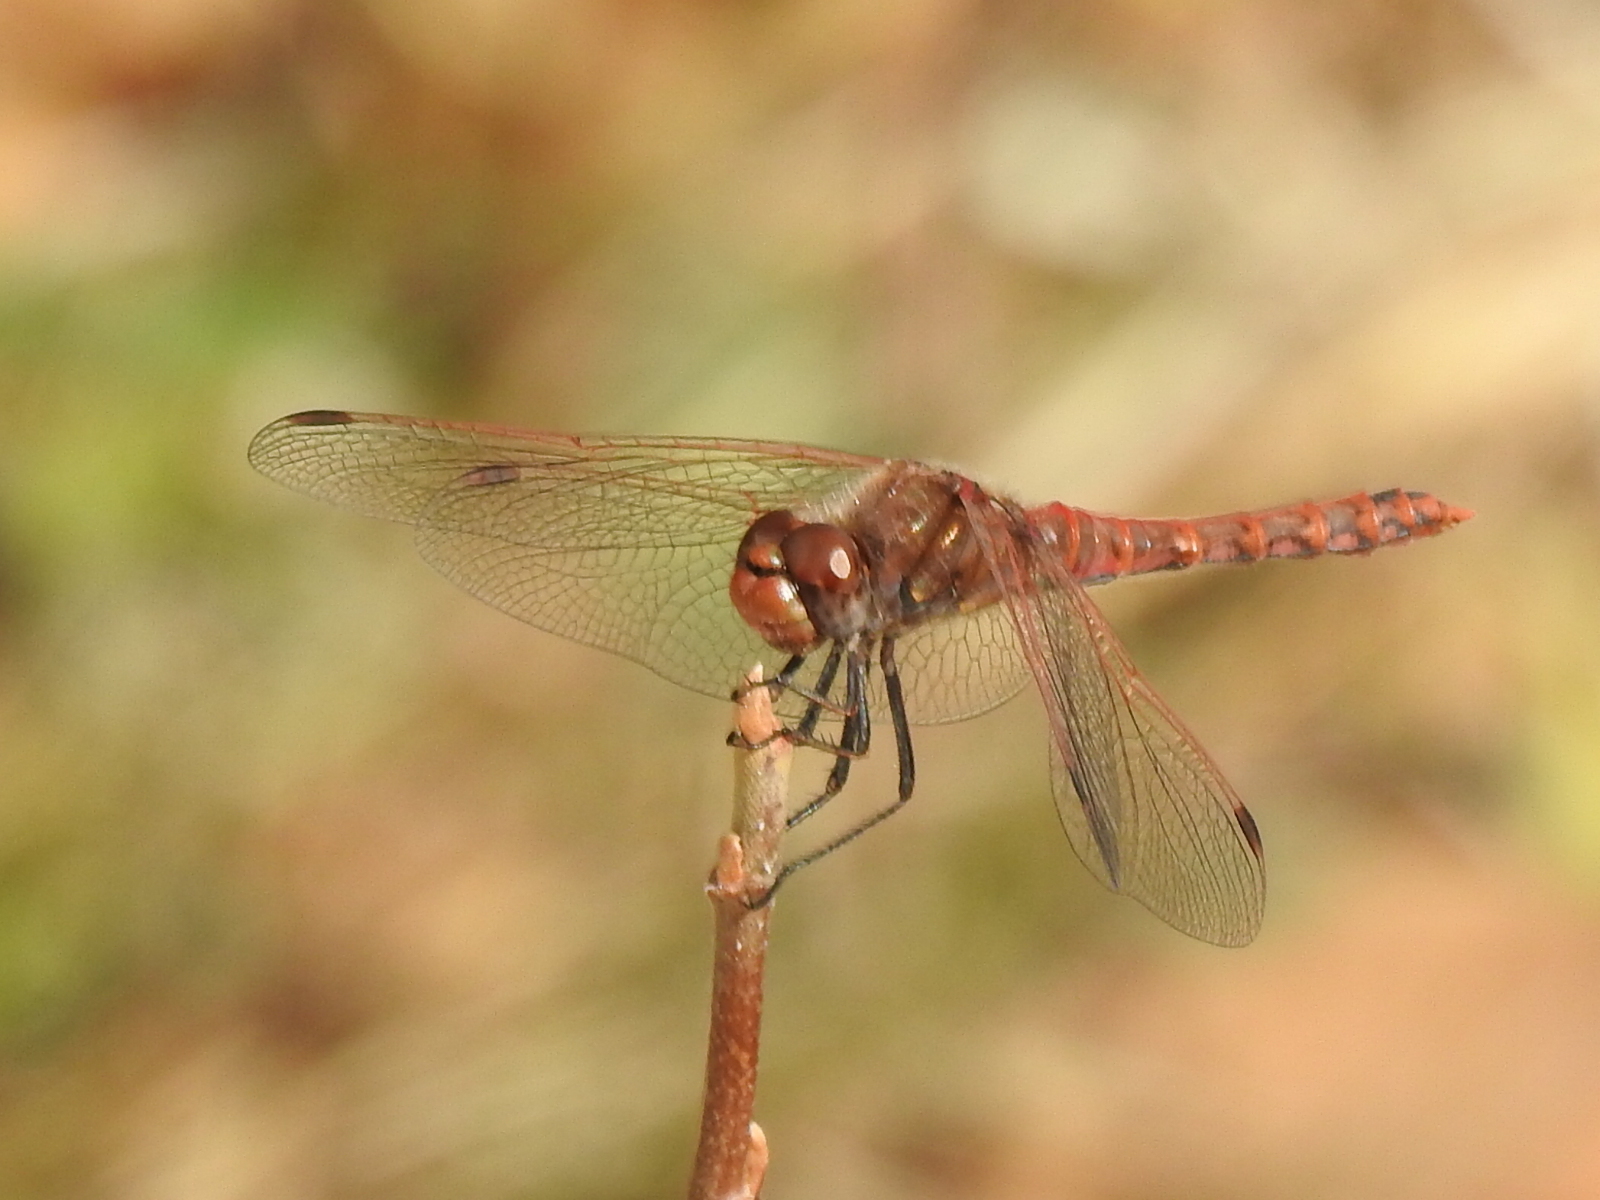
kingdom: Animalia
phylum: Arthropoda
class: Insecta
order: Odonata
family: Libellulidae
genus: Sympetrum
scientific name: Sympetrum corruptum
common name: Variegated meadowhawk
